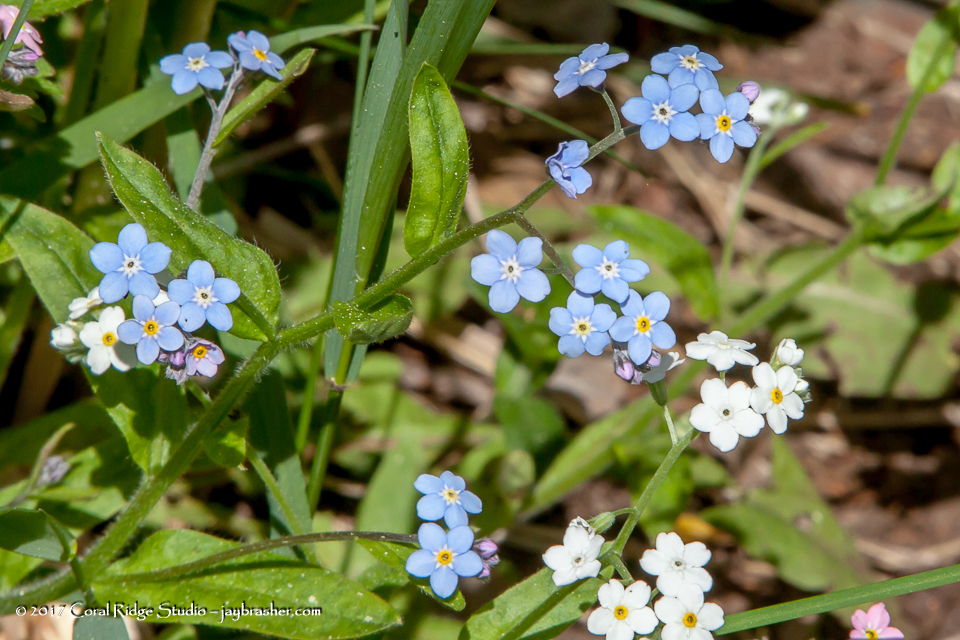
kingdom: Plantae
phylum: Tracheophyta
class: Magnoliopsida
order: Boraginales
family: Boraginaceae
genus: Myosotis
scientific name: Myosotis scorpioides
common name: Water forget-me-not
